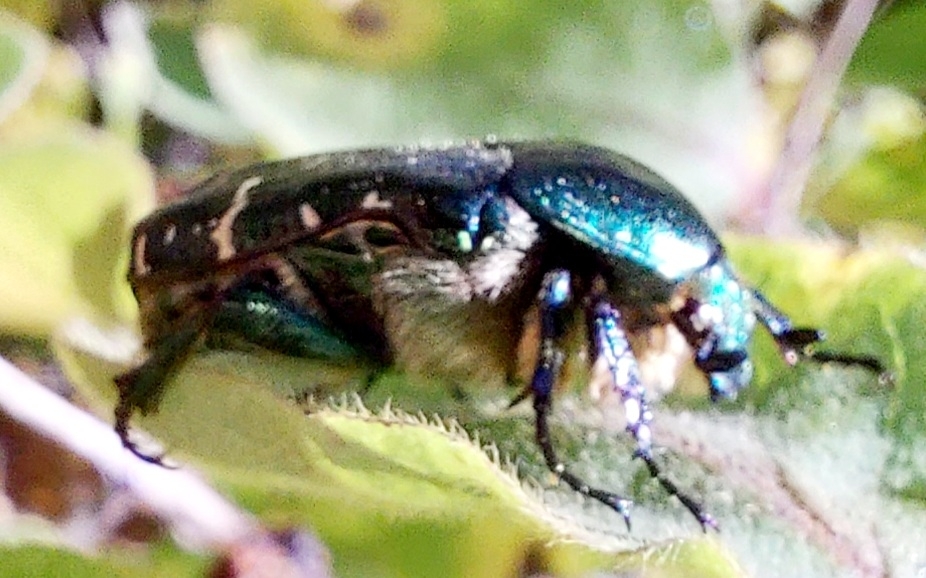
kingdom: Animalia
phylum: Arthropoda
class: Insecta
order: Coleoptera
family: Scarabaeidae
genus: Cetonia
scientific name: Cetonia aurata
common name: Rose chafer
